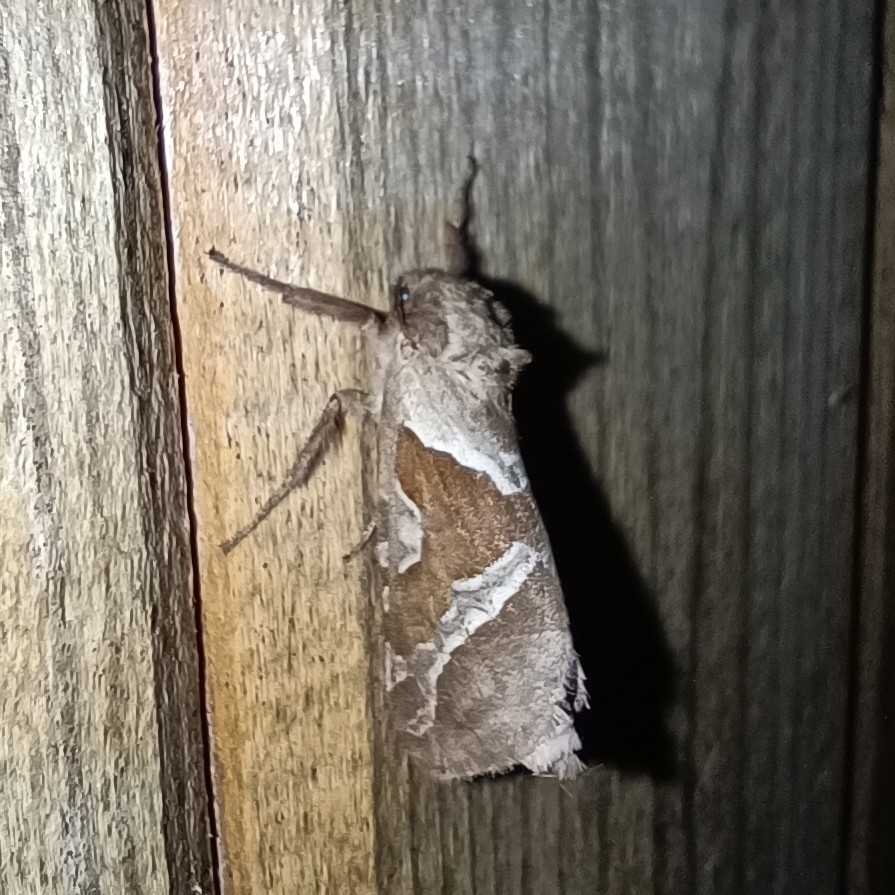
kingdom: Animalia
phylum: Arthropoda
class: Insecta
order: Lepidoptera
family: Hepialidae
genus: Triodia
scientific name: Triodia sylvina
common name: Orange swift
